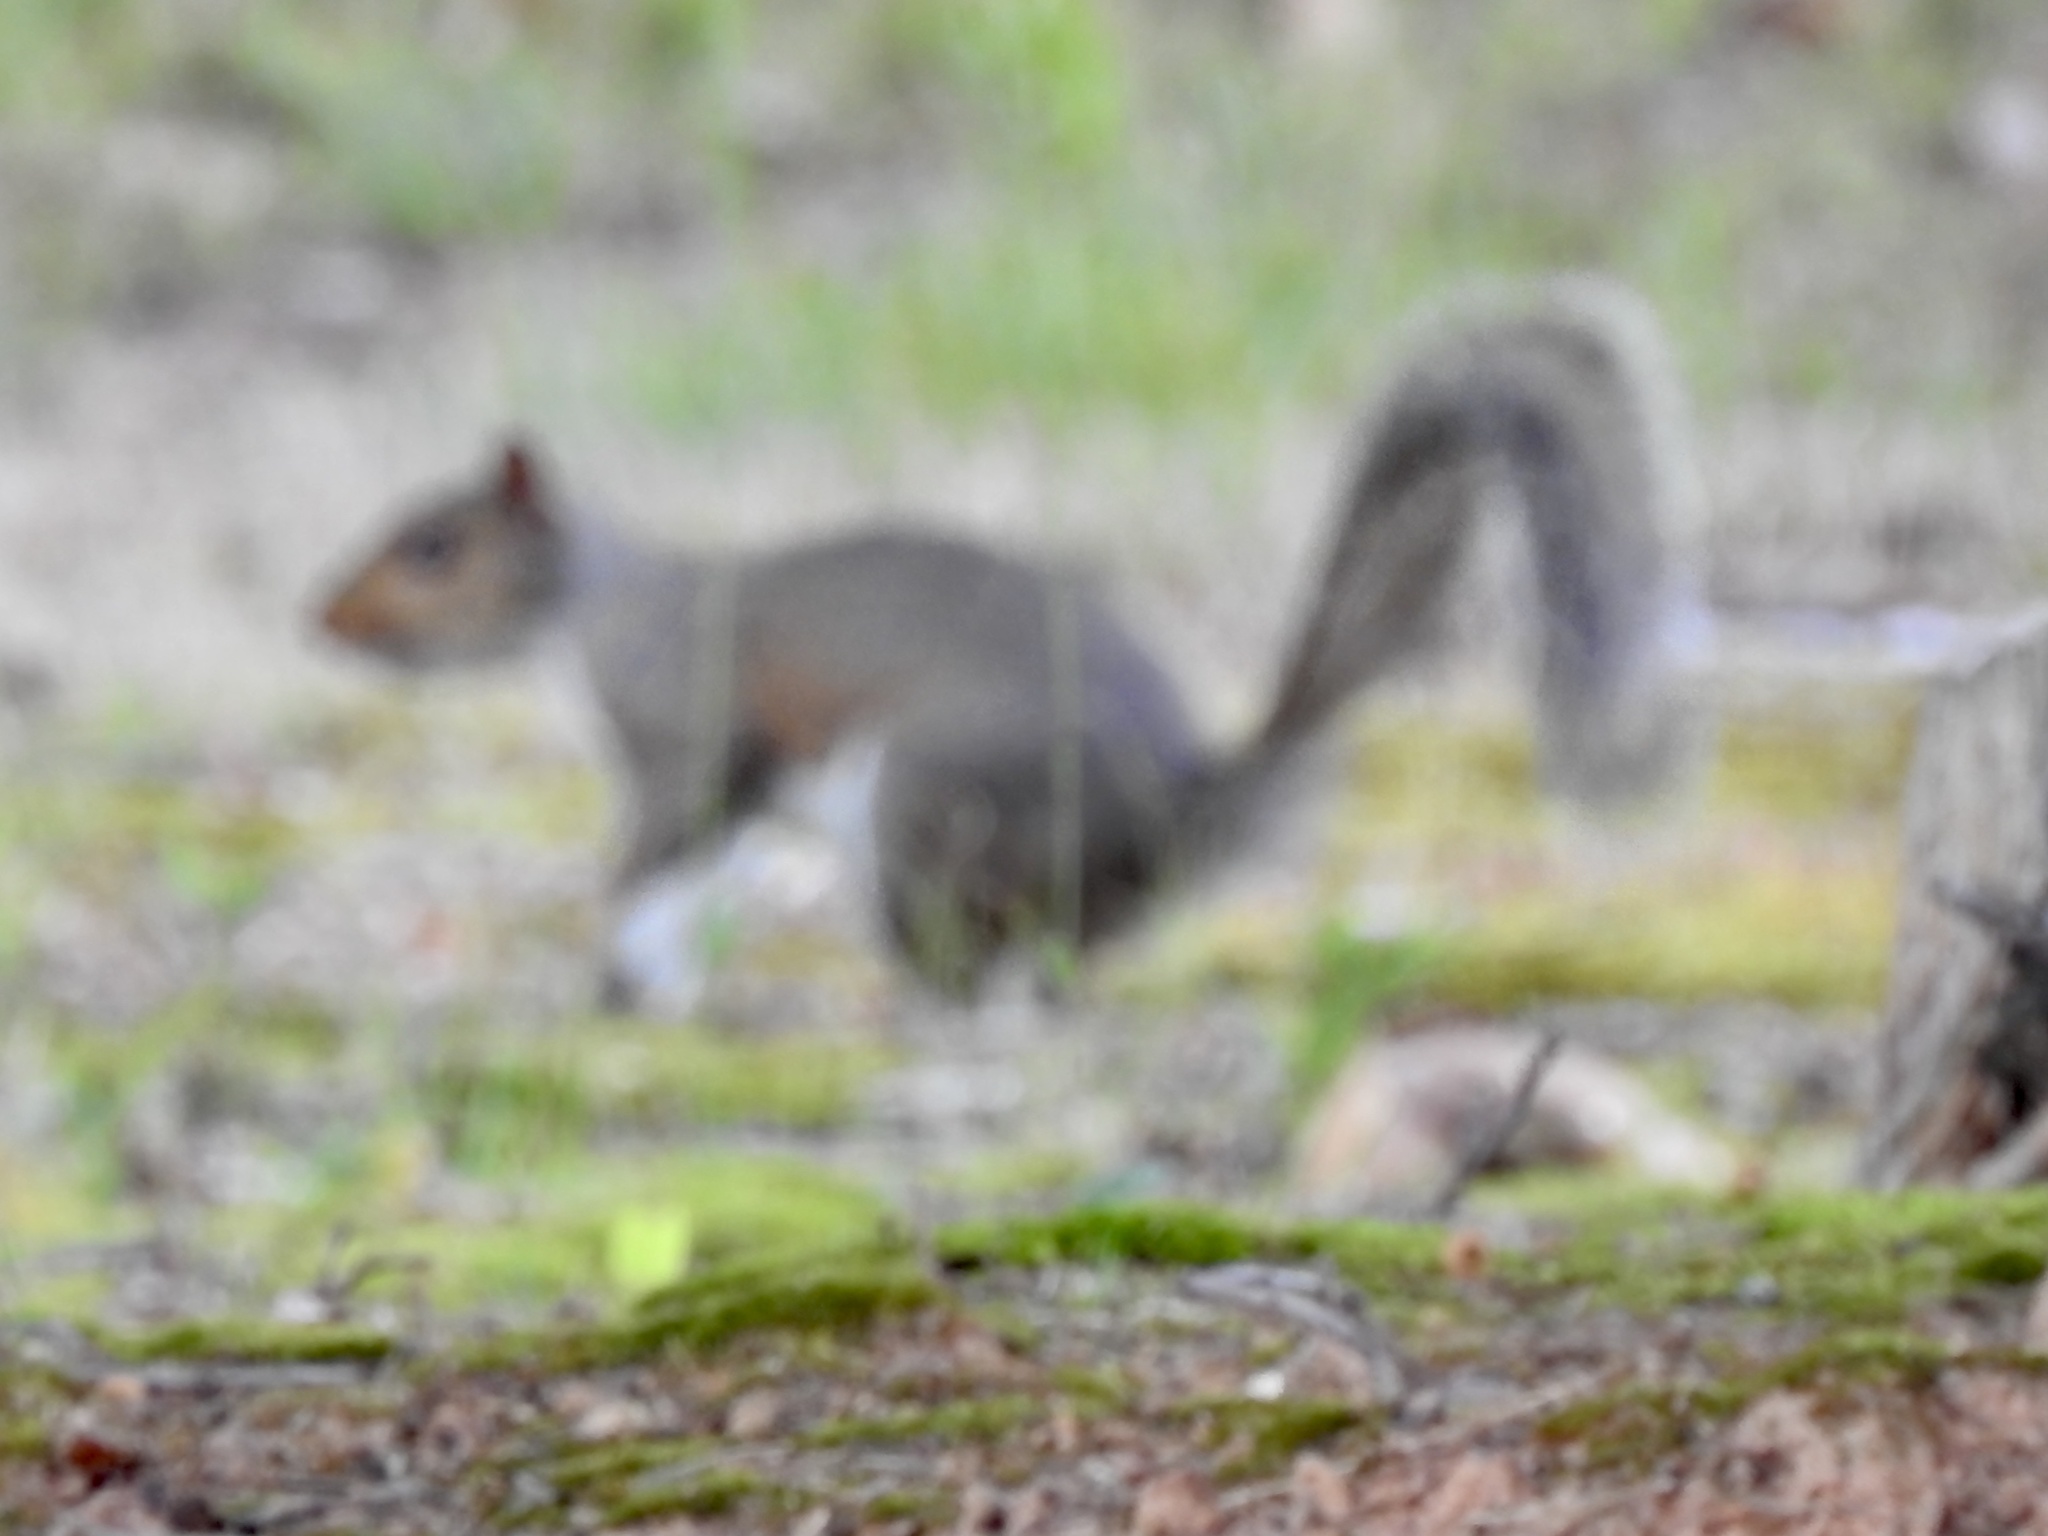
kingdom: Animalia
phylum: Chordata
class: Mammalia
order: Rodentia
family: Sciuridae
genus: Sciurus
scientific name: Sciurus carolinensis
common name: Eastern gray squirrel
